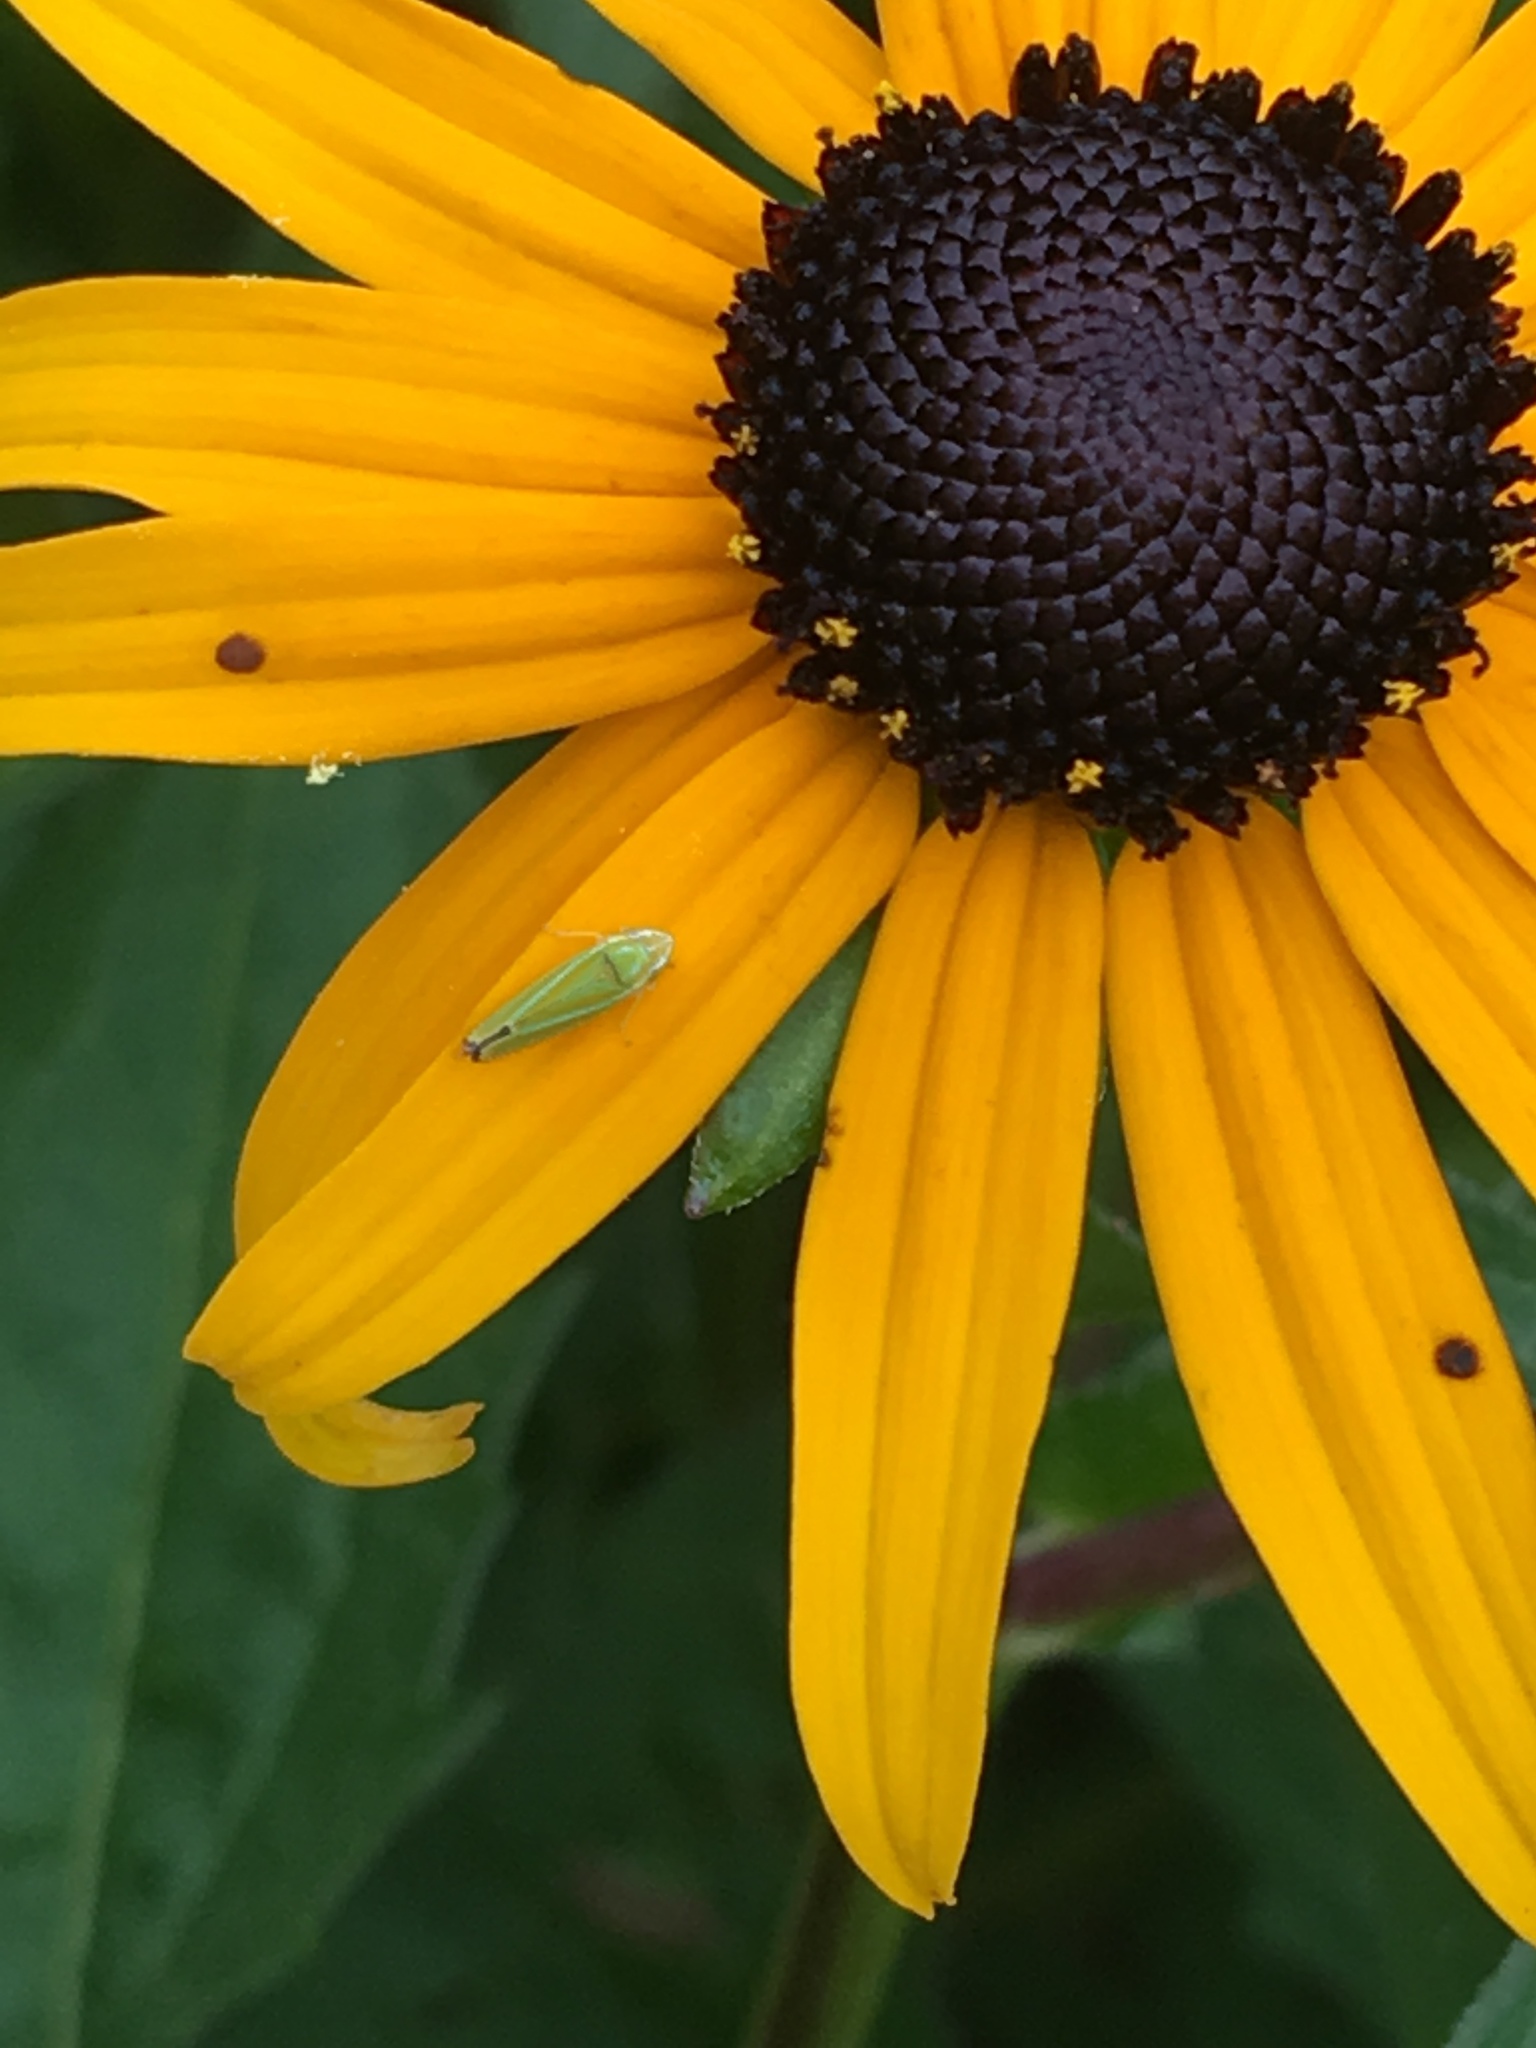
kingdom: Animalia
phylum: Arthropoda
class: Insecta
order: Hemiptera
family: Cicadellidae
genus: Graphocephala
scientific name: Graphocephala versuta
